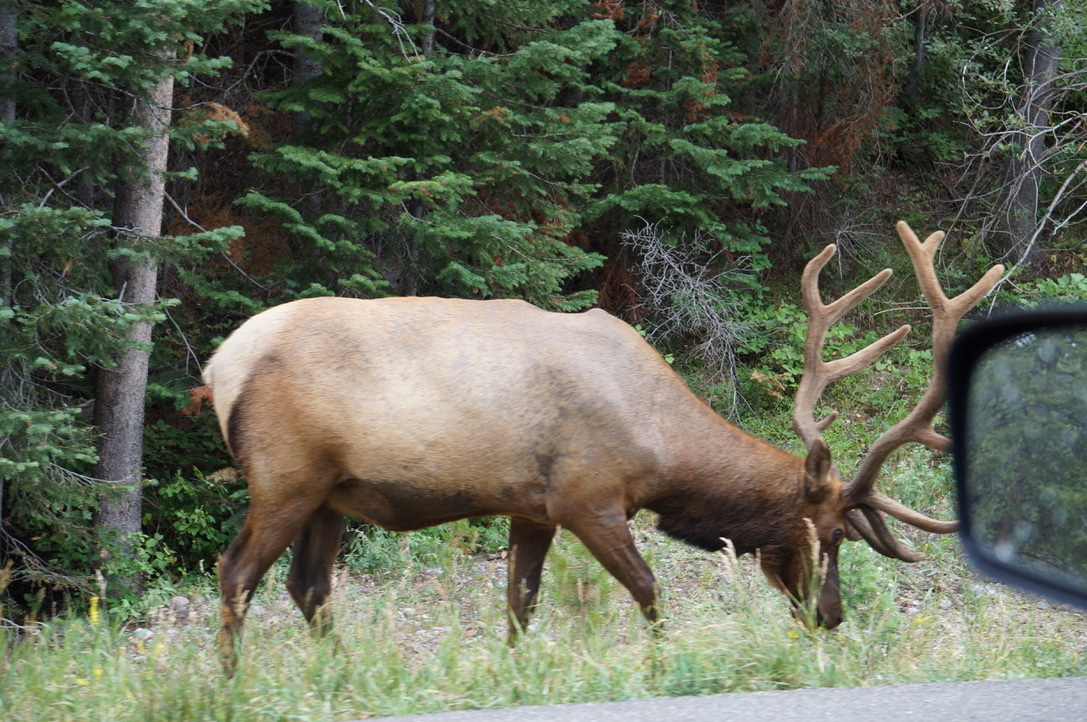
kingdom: Animalia
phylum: Chordata
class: Mammalia
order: Artiodactyla
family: Cervidae
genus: Cervus
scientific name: Cervus elaphus
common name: Red deer
